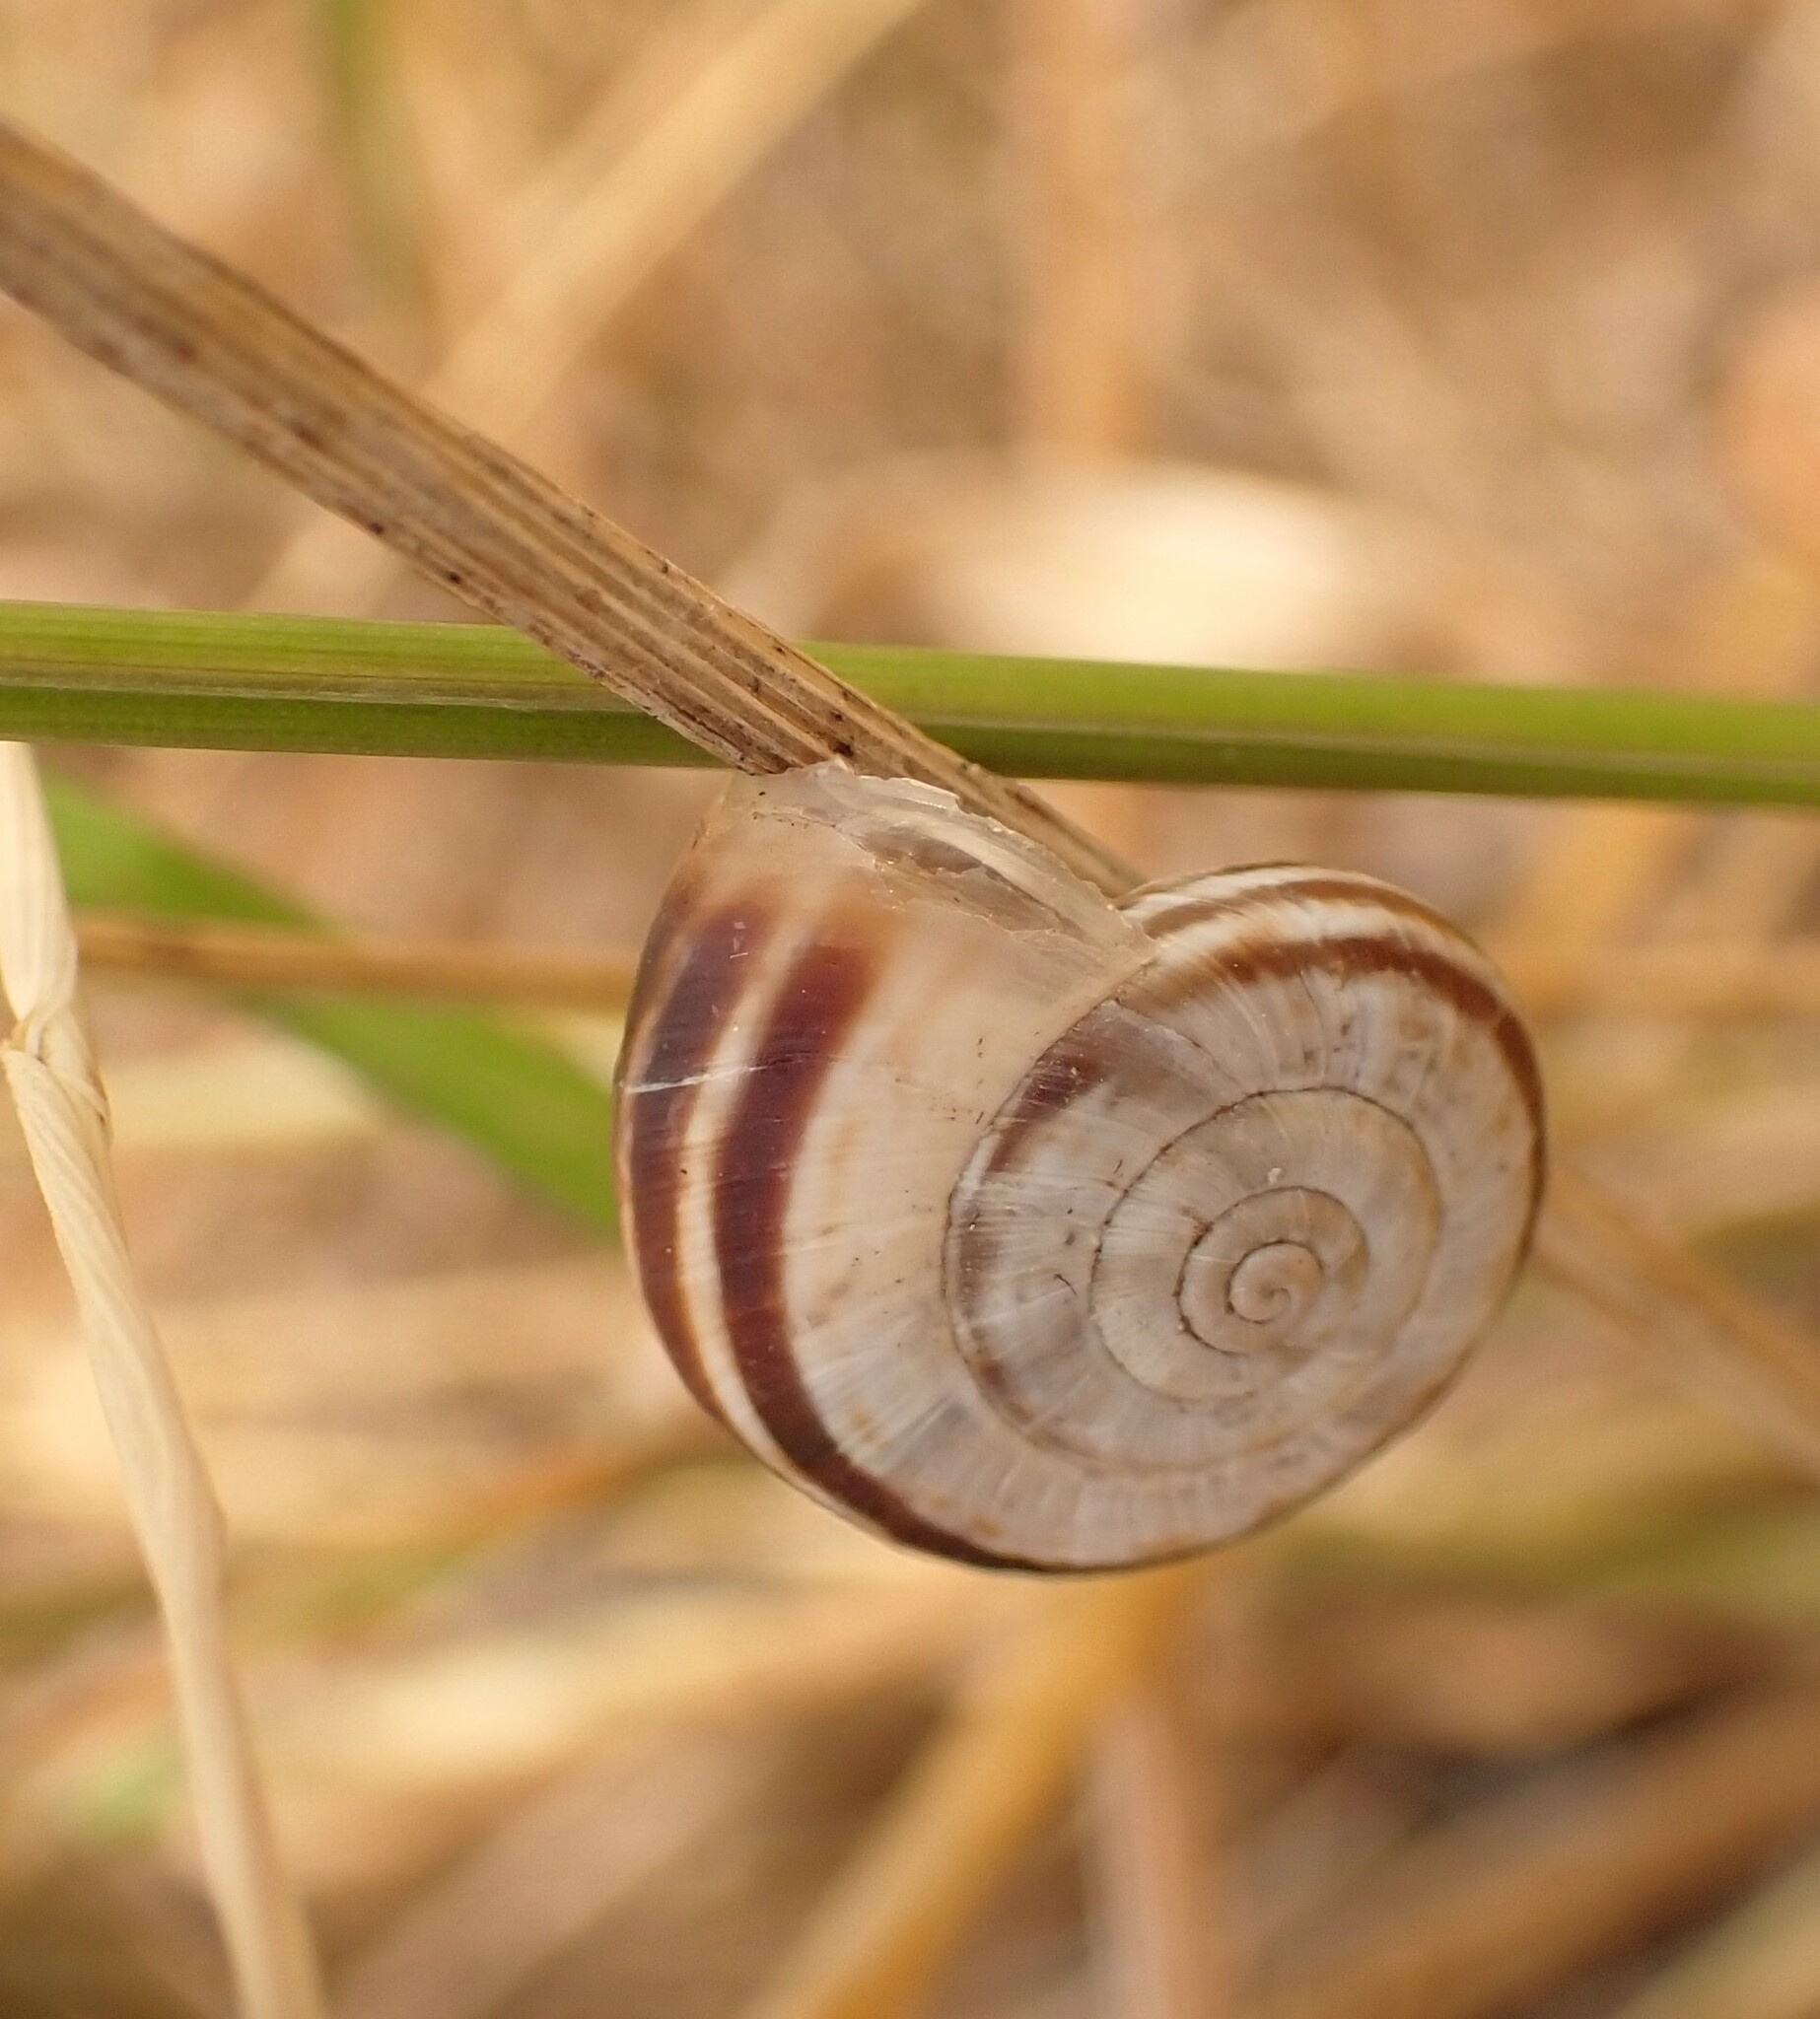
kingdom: Animalia
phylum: Mollusca
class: Gastropoda
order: Stylommatophora
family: Geomitridae
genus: Xerolenta
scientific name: Xerolenta obvia
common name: White heath snail
